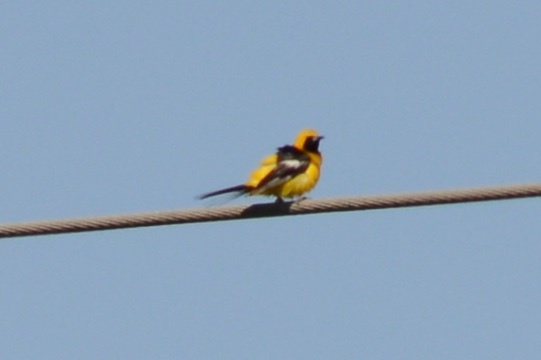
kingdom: Animalia
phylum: Chordata
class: Aves
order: Passeriformes
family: Icteridae
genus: Icterus
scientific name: Icterus cucullatus
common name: Hooded oriole
